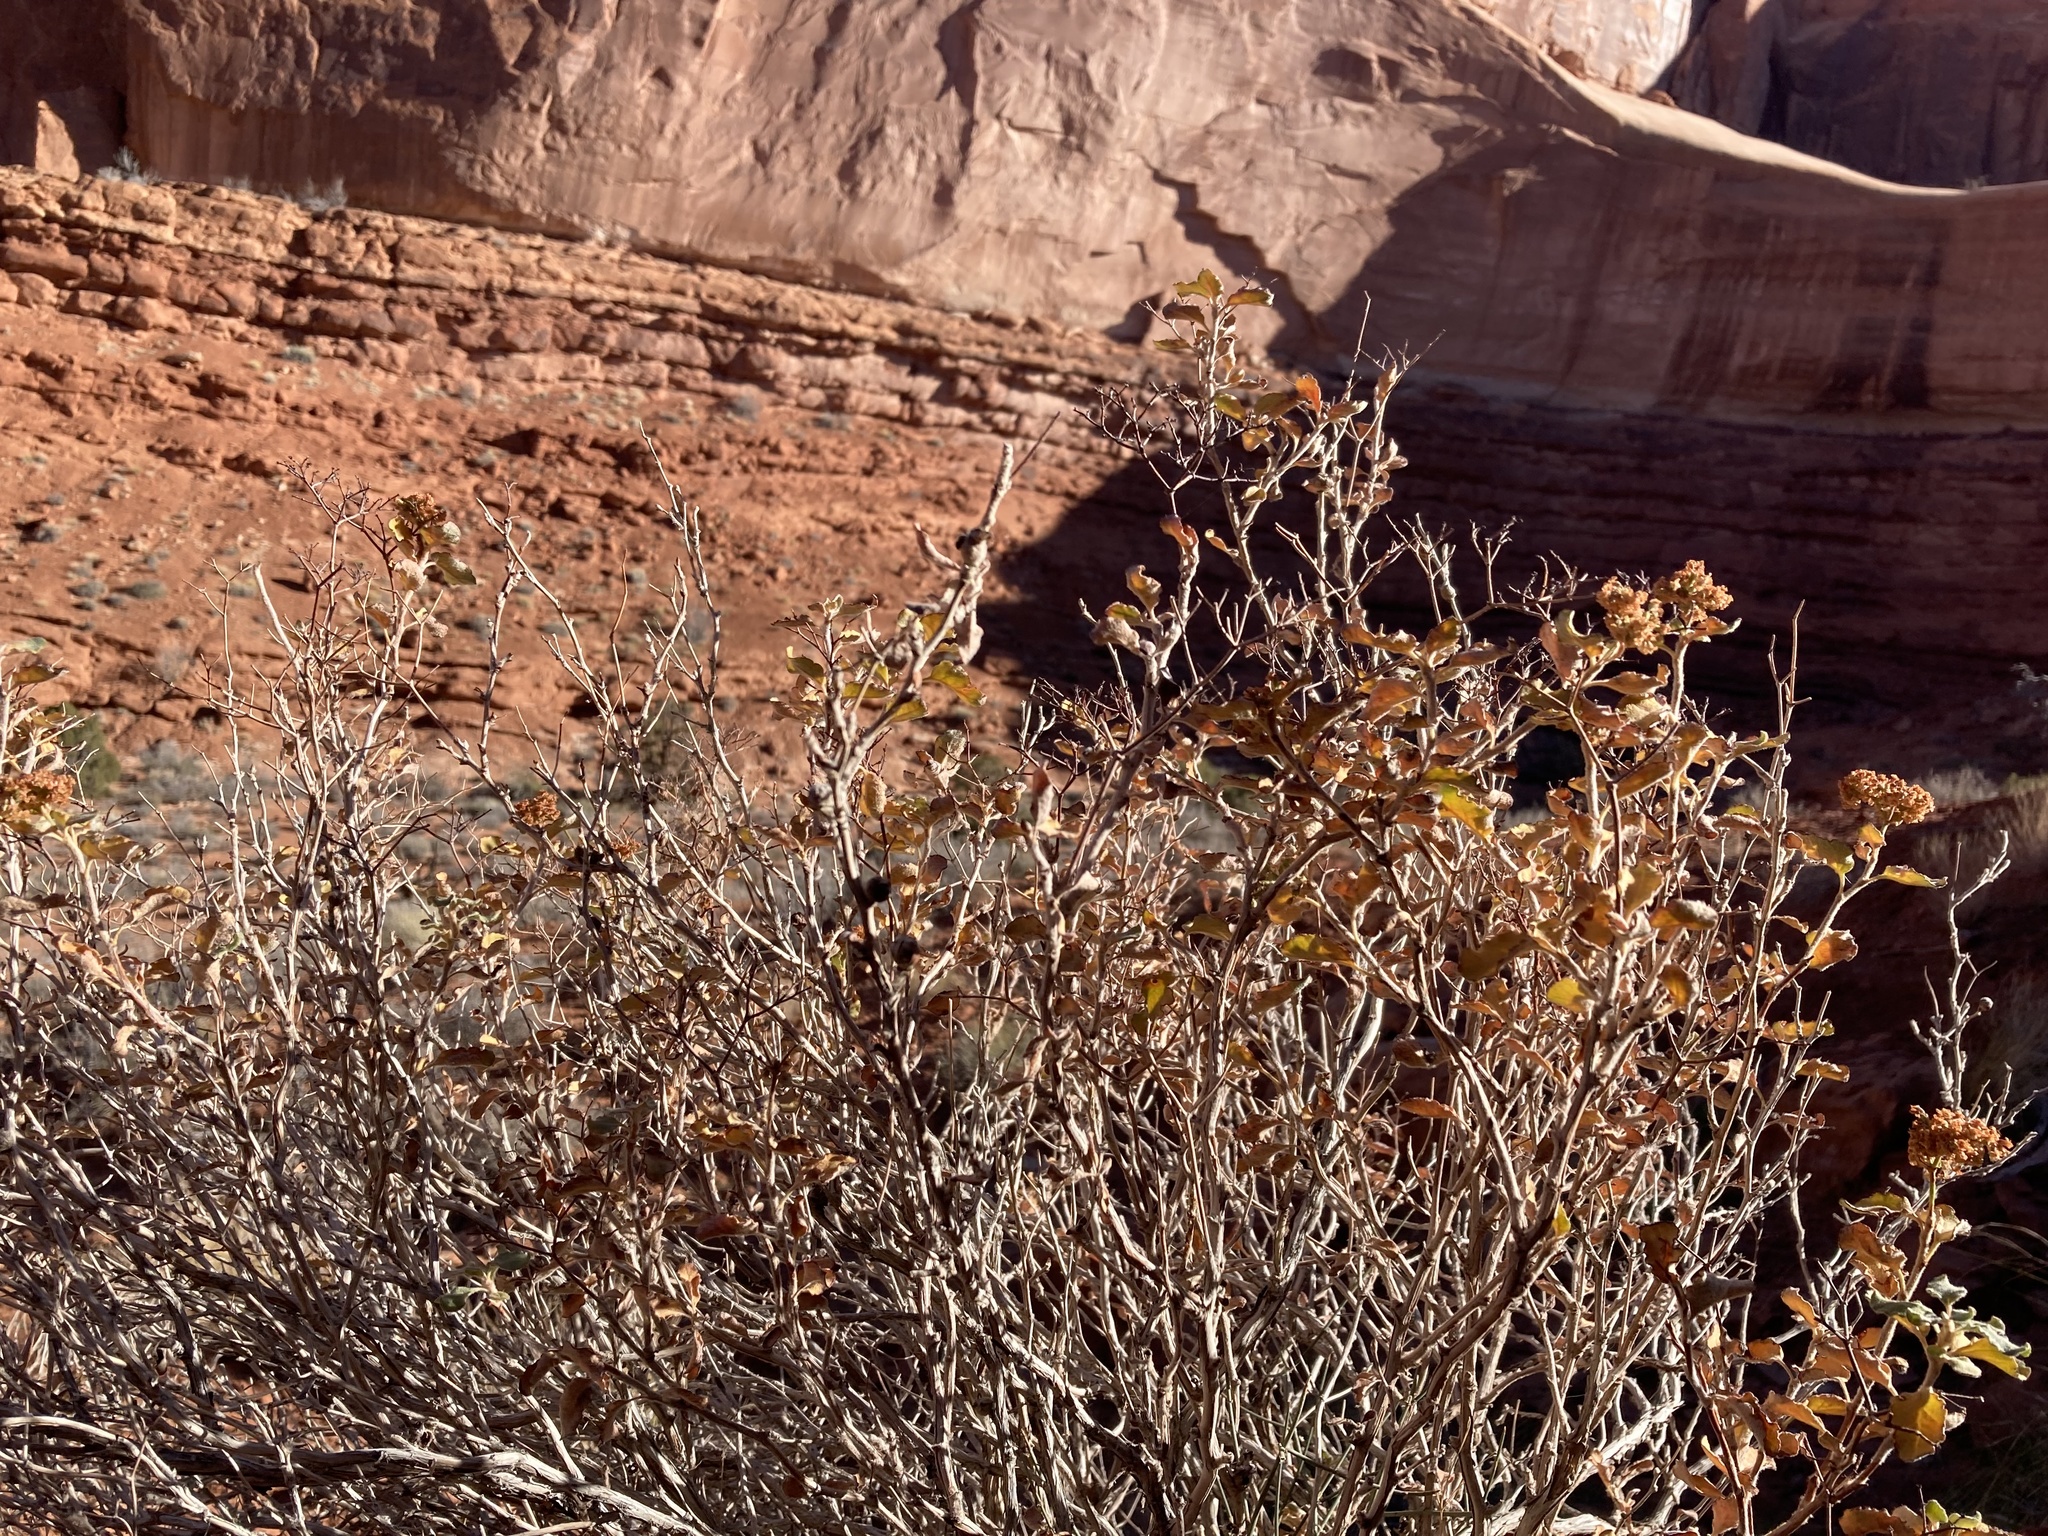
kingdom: Plantae
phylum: Tracheophyta
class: Magnoliopsida
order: Caryophyllales
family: Polygonaceae
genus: Eriogonum
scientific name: Eriogonum corymbosum
